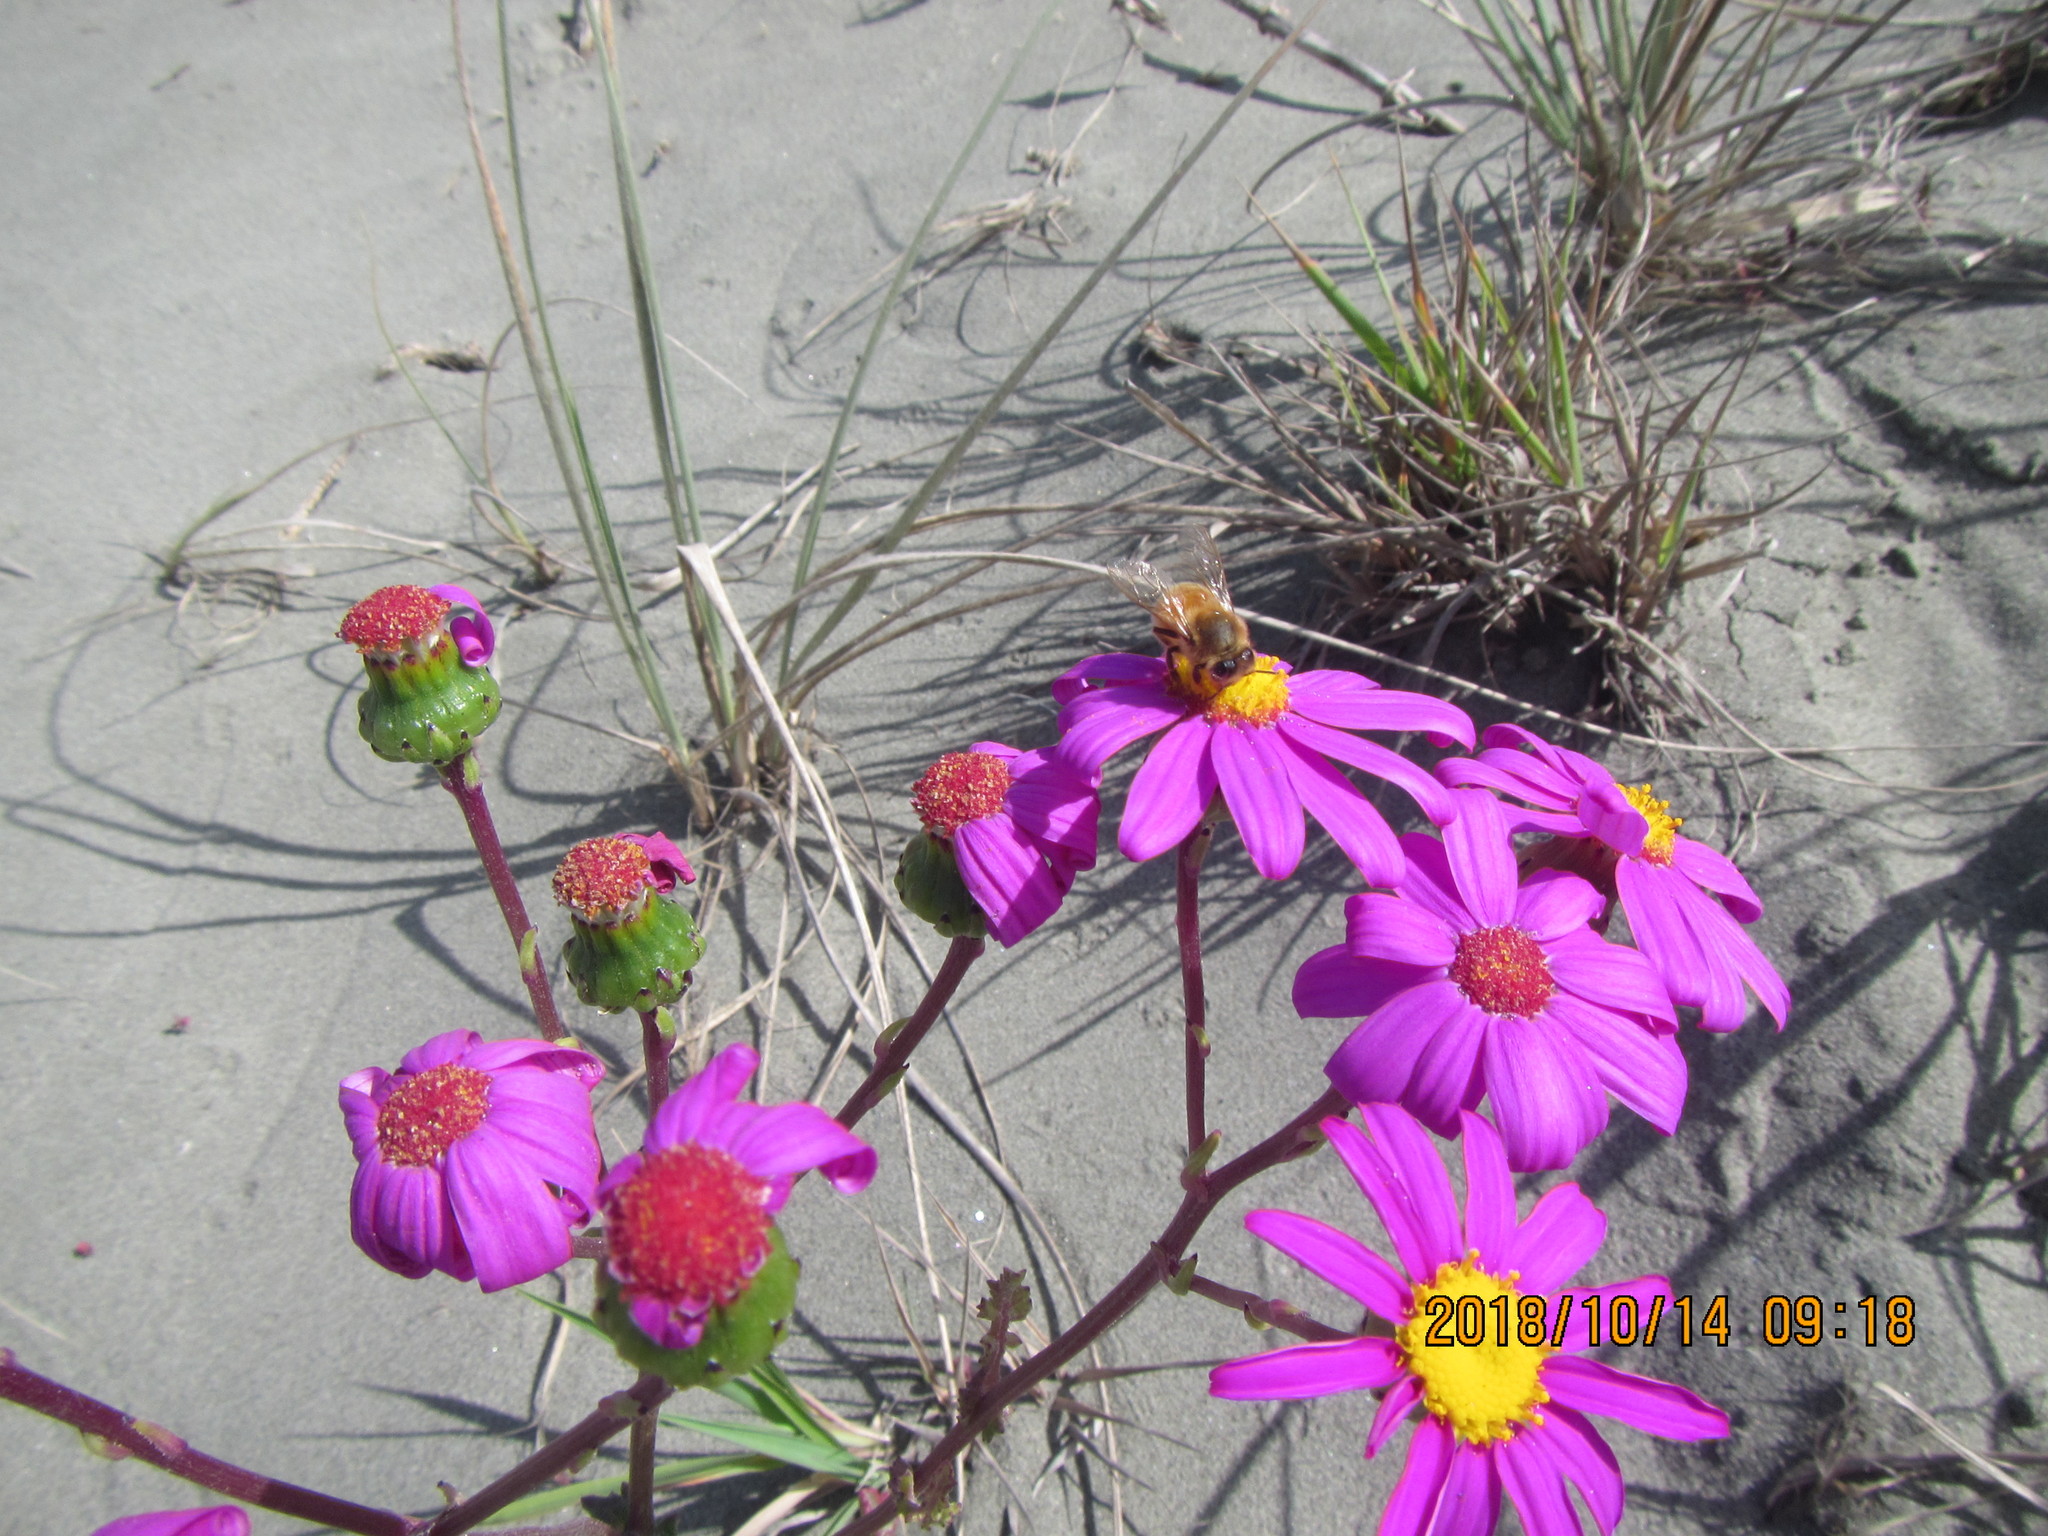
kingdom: Plantae
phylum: Tracheophyta
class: Magnoliopsida
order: Asterales
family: Asteraceae
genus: Senecio
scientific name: Senecio elegans
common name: Purple groundsel
